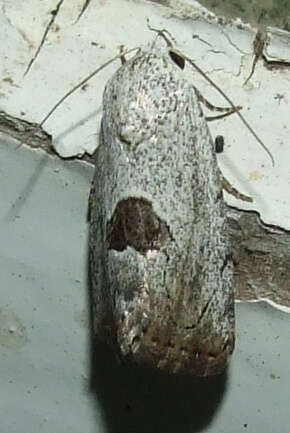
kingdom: Animalia
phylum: Arthropoda
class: Insecta
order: Lepidoptera
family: Nolidae
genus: Armactica
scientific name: Armactica conchidia
